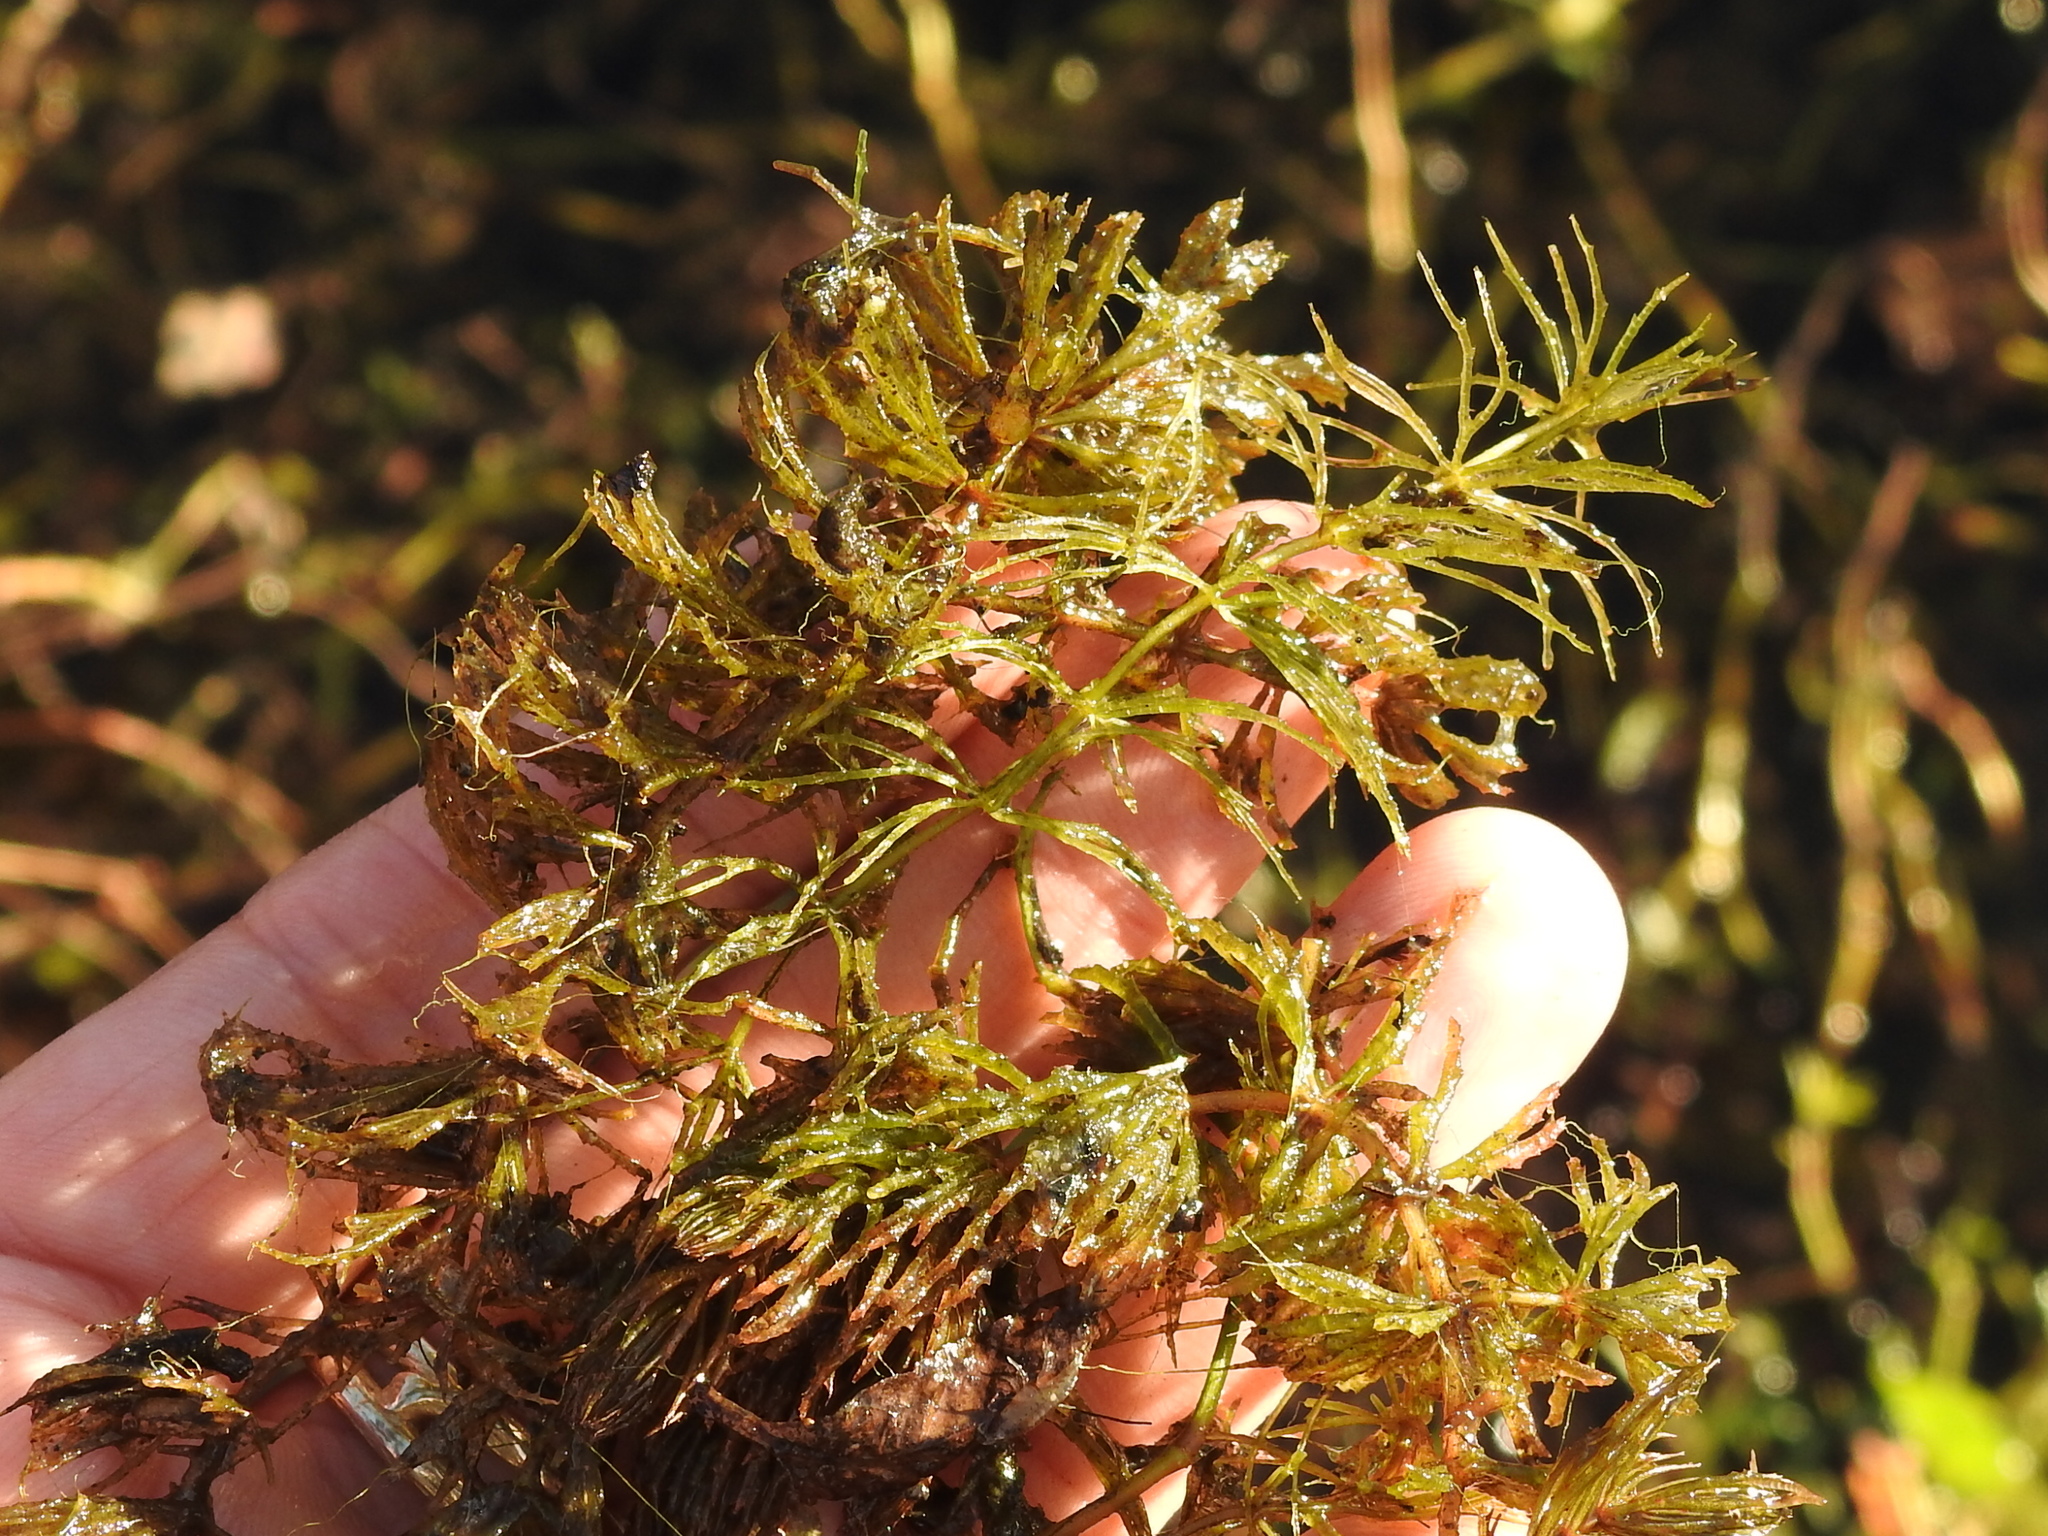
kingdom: Plantae
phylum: Tracheophyta
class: Magnoliopsida
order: Ceratophyllales
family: Ceratophyllaceae
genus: Ceratophyllum
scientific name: Ceratophyllum demersum
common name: Rigid hornwort
